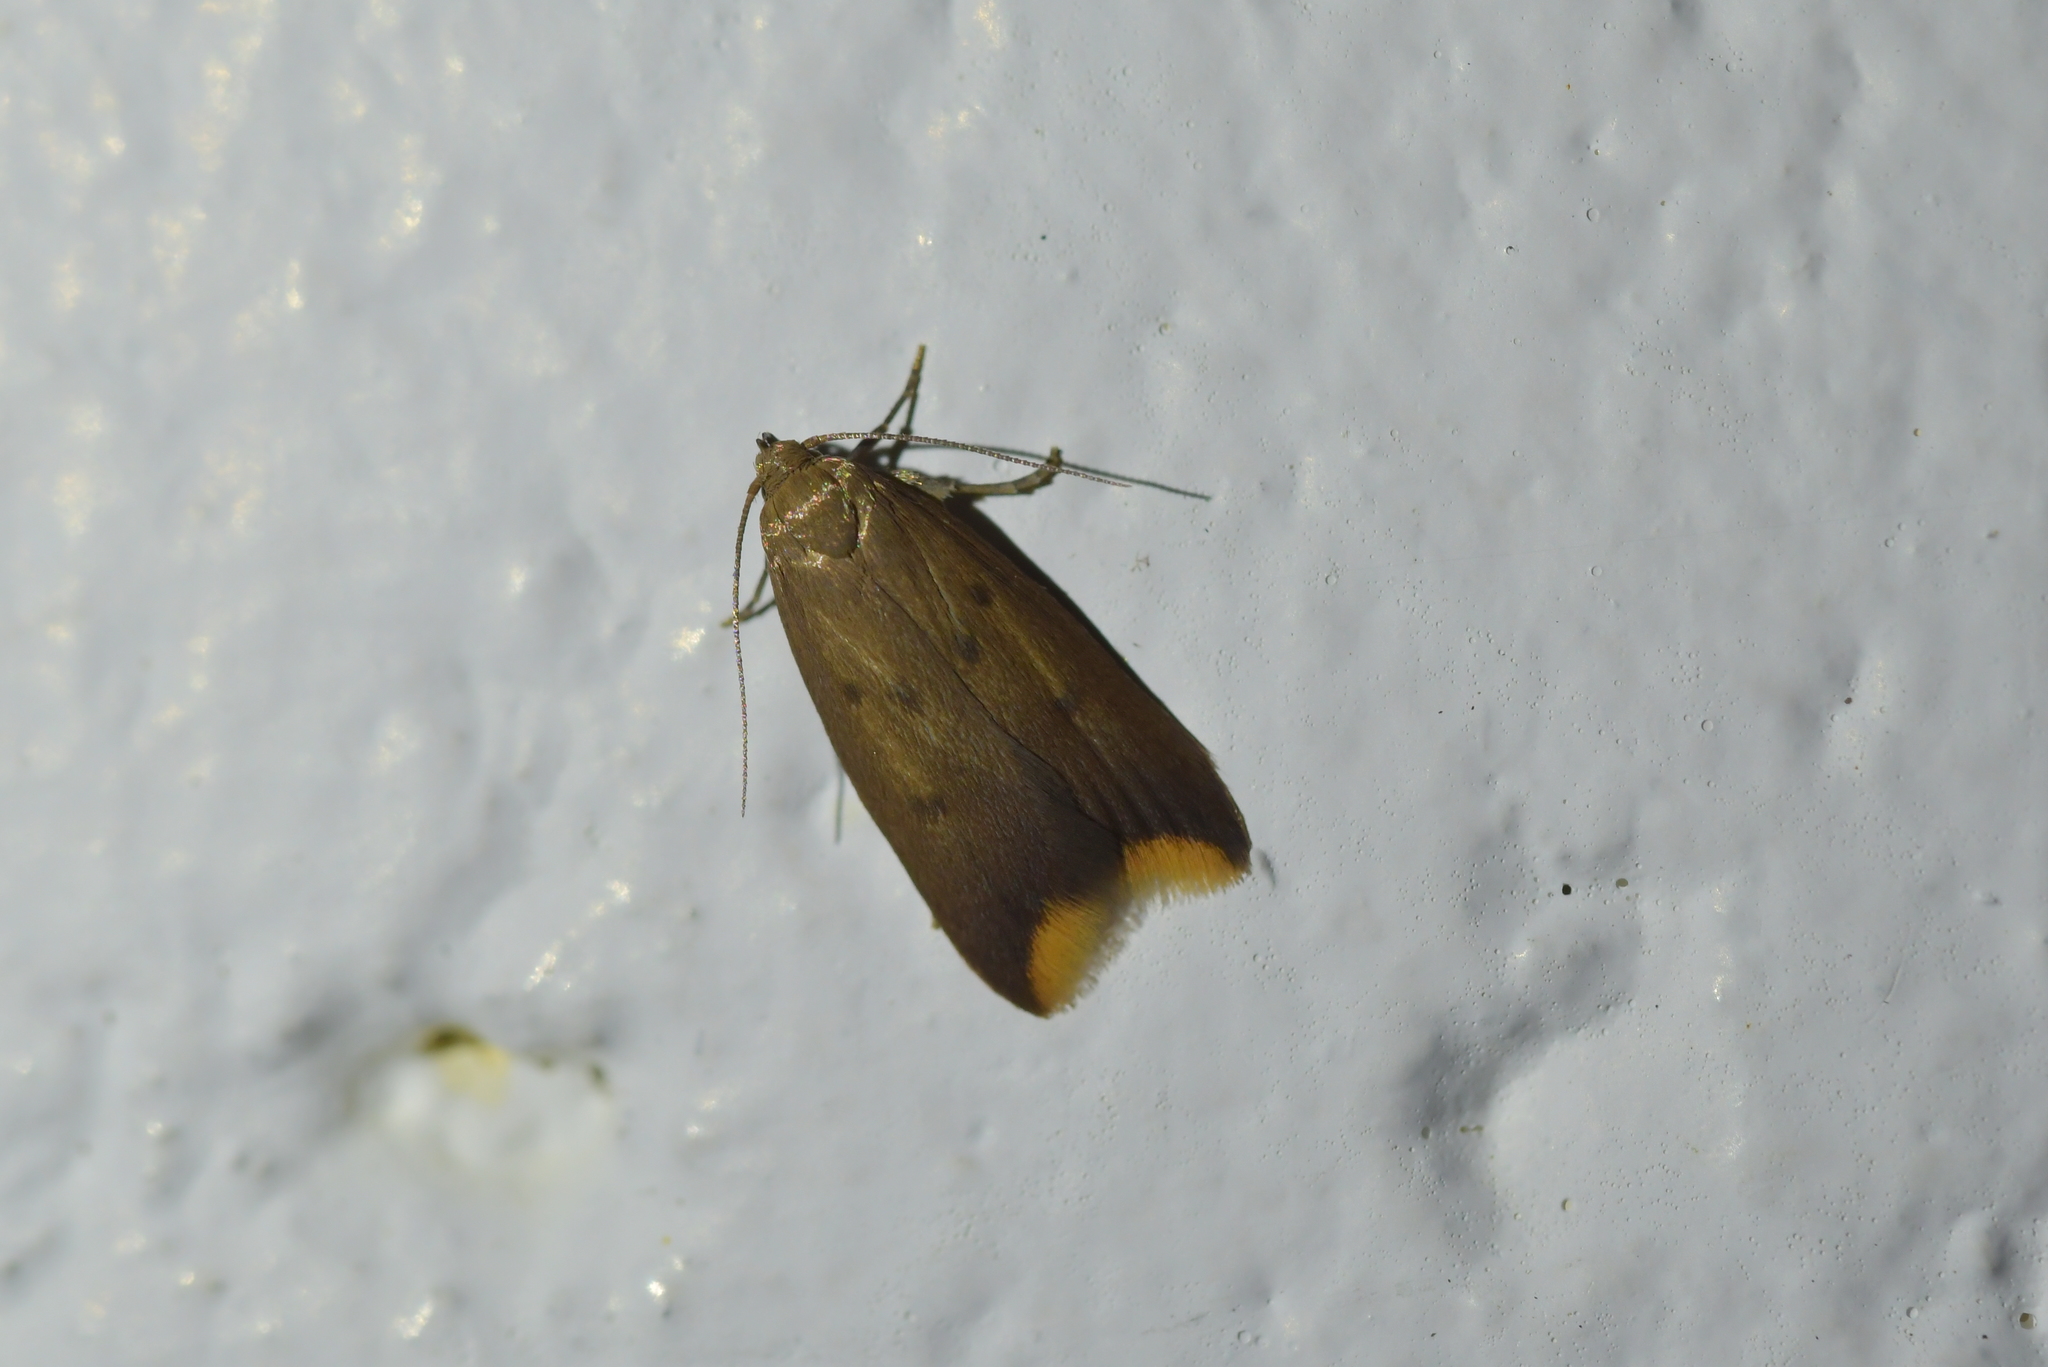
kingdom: Animalia
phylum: Arthropoda
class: Insecta
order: Lepidoptera
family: Oecophoridae
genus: Tachystola
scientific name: Tachystola acroxantha
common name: Ruddy streak
